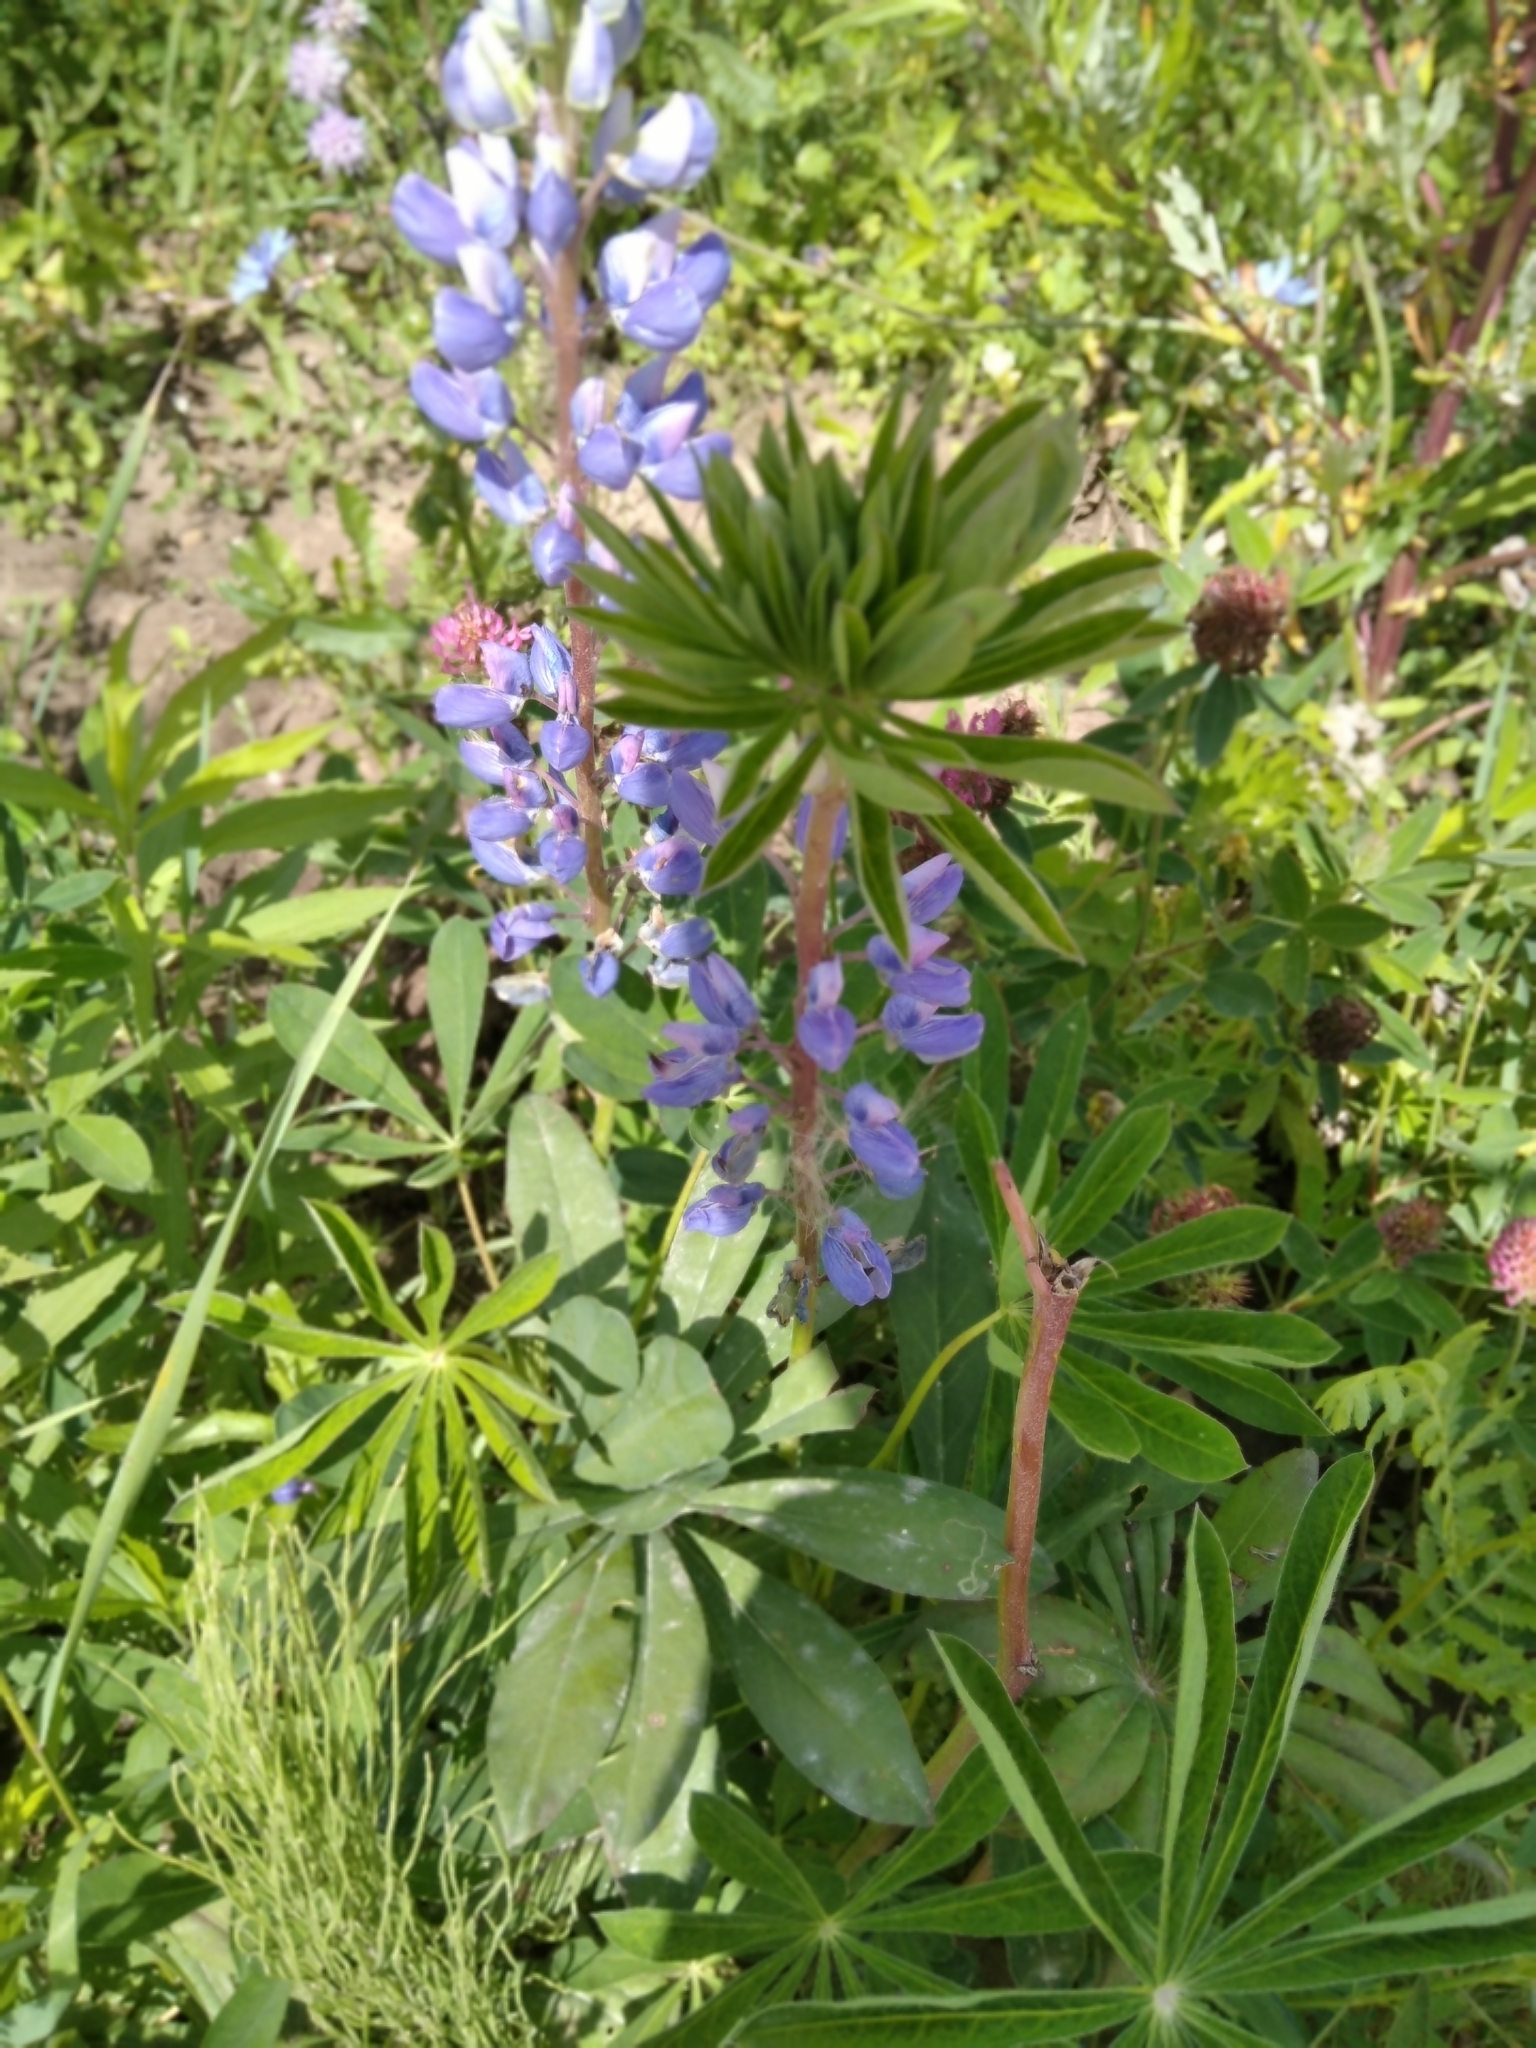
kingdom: Plantae
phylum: Tracheophyta
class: Magnoliopsida
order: Fabales
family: Fabaceae
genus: Lupinus
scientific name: Lupinus polyphyllus
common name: Garden lupin
